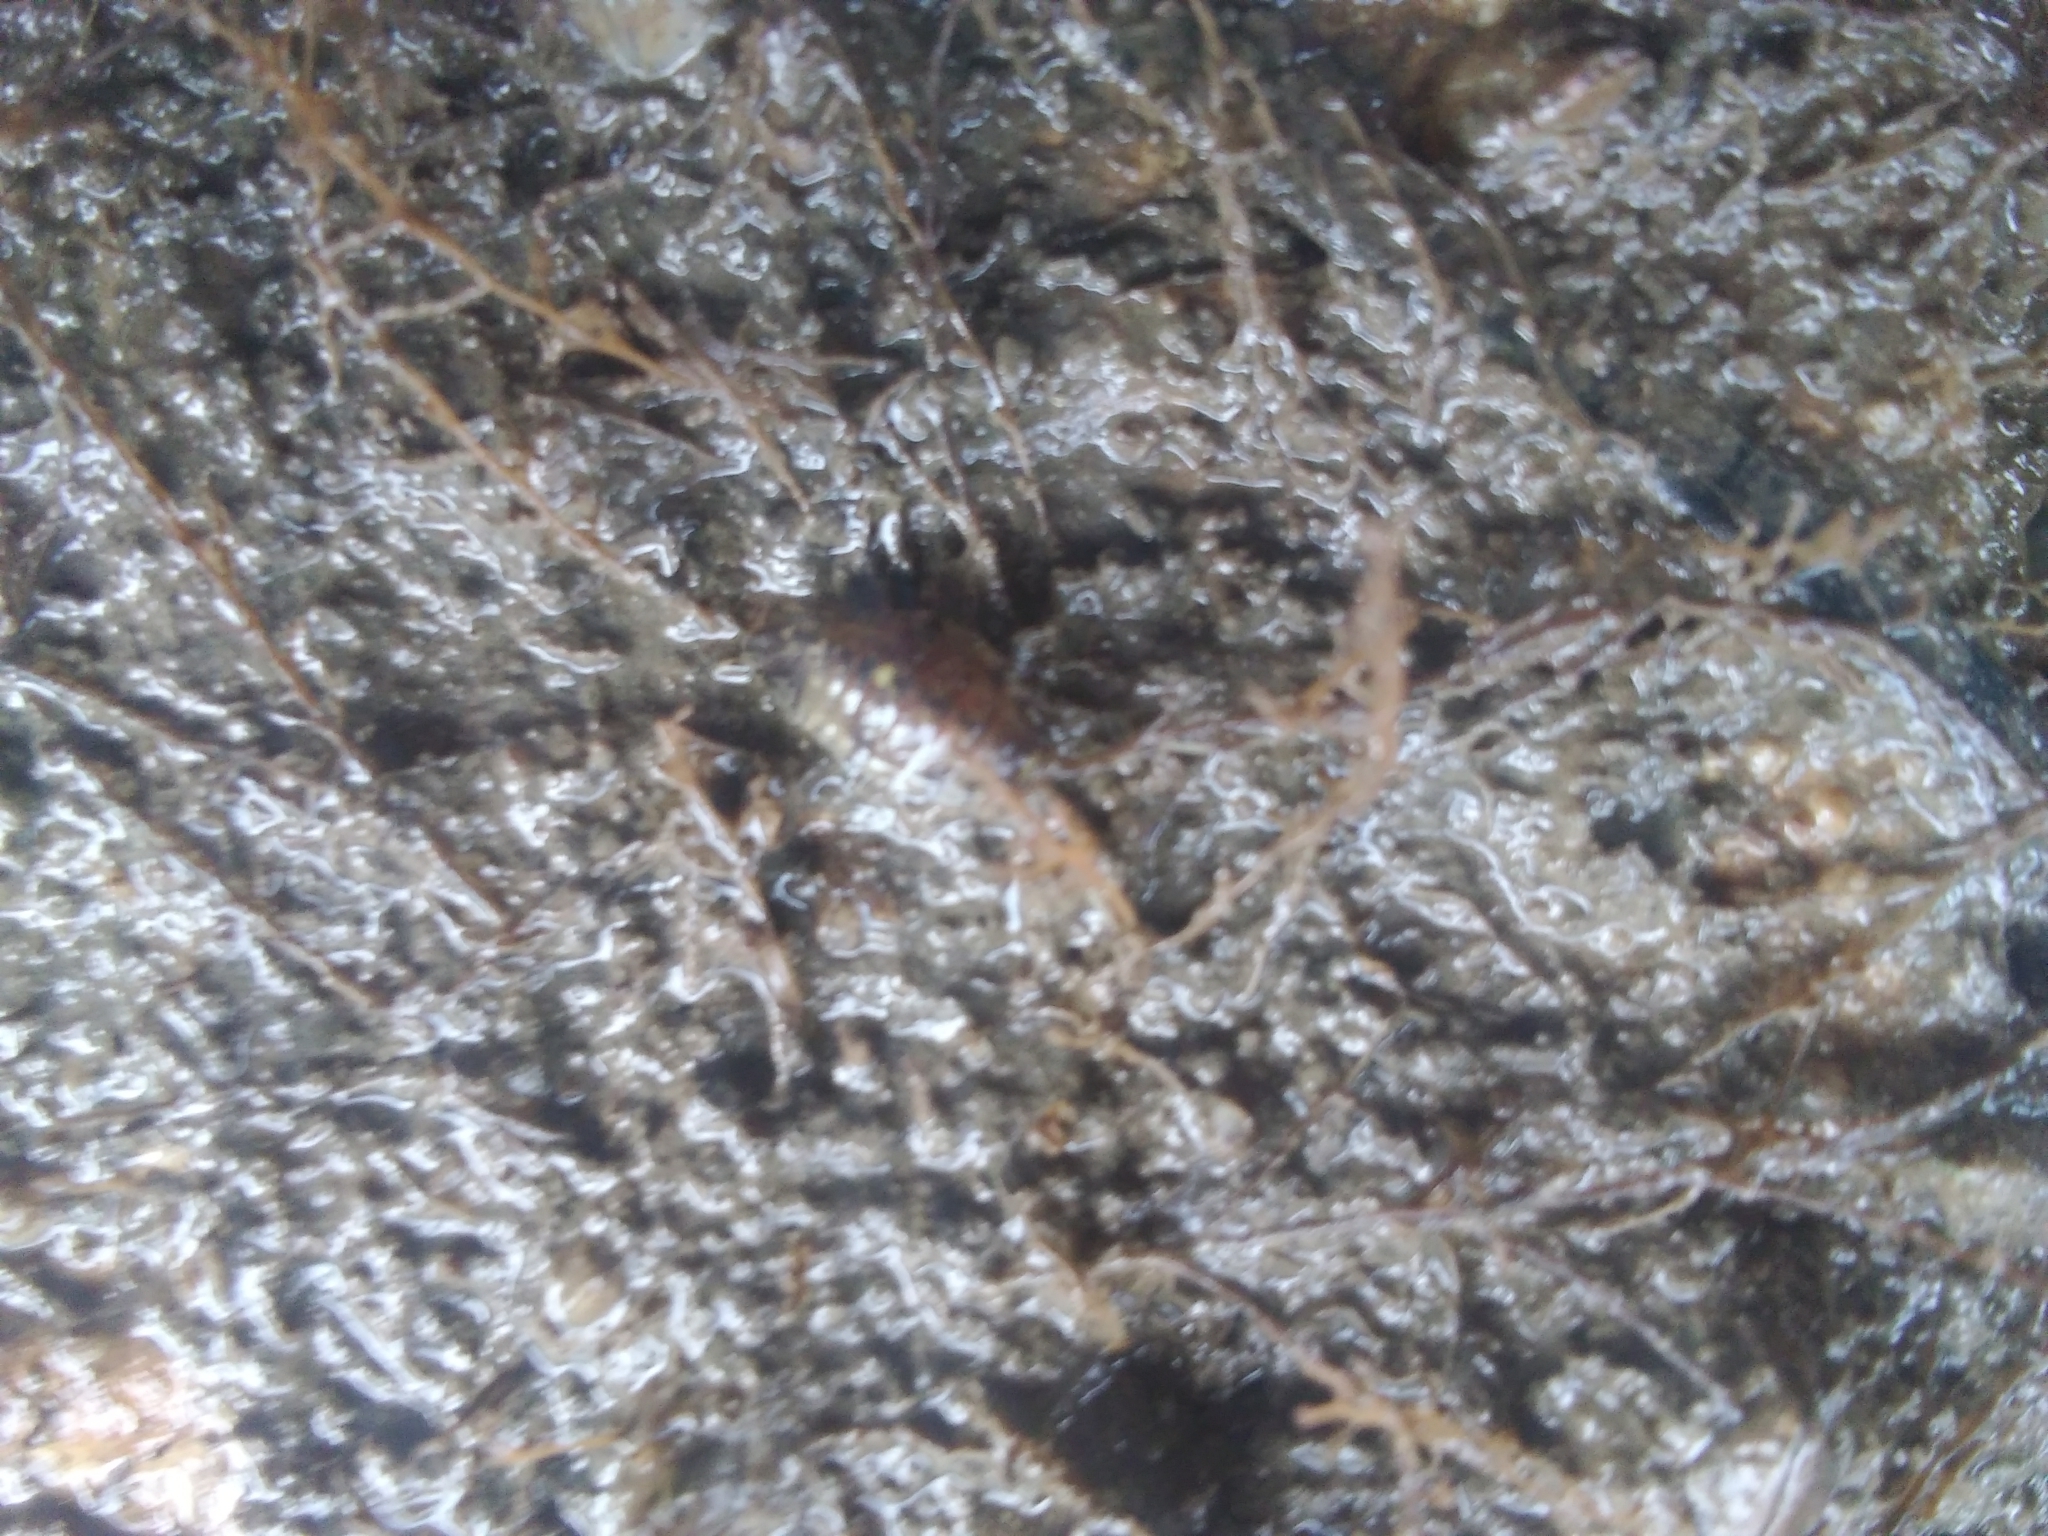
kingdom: Animalia
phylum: Arthropoda
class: Malacostraca
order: Isopoda
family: Idoteidae
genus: Synidotea
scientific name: Synidotea laticauda
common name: Isopod
